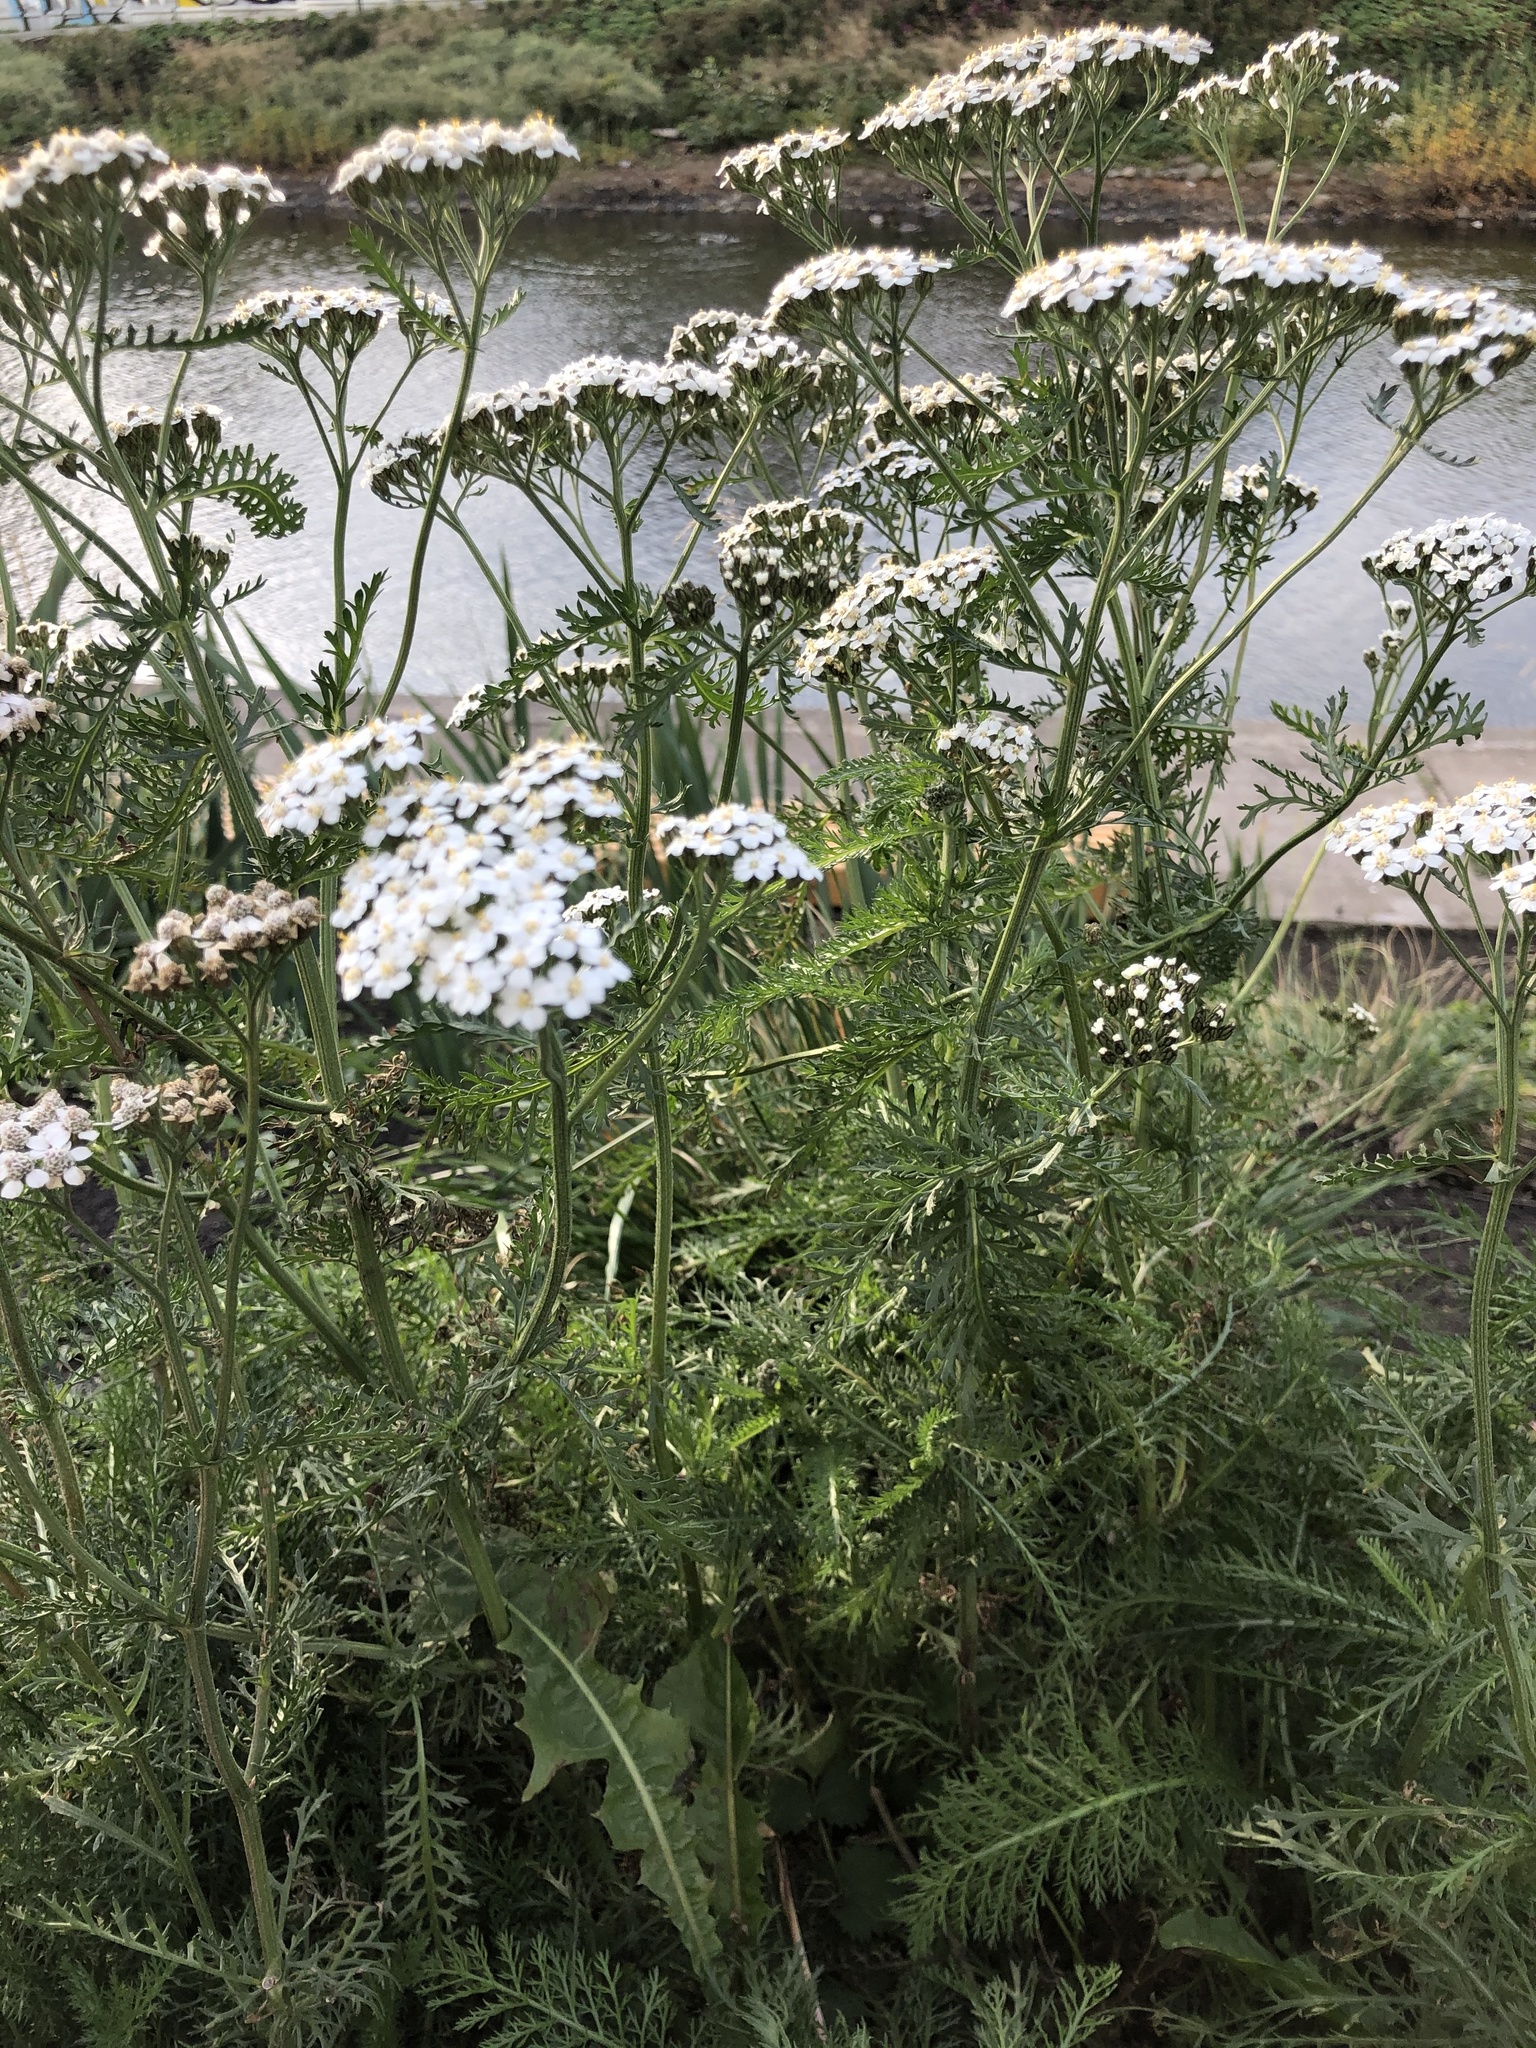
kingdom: Plantae
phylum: Tracheophyta
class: Magnoliopsida
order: Asterales
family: Asteraceae
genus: Achillea
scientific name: Achillea millefolium
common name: Yarrow
